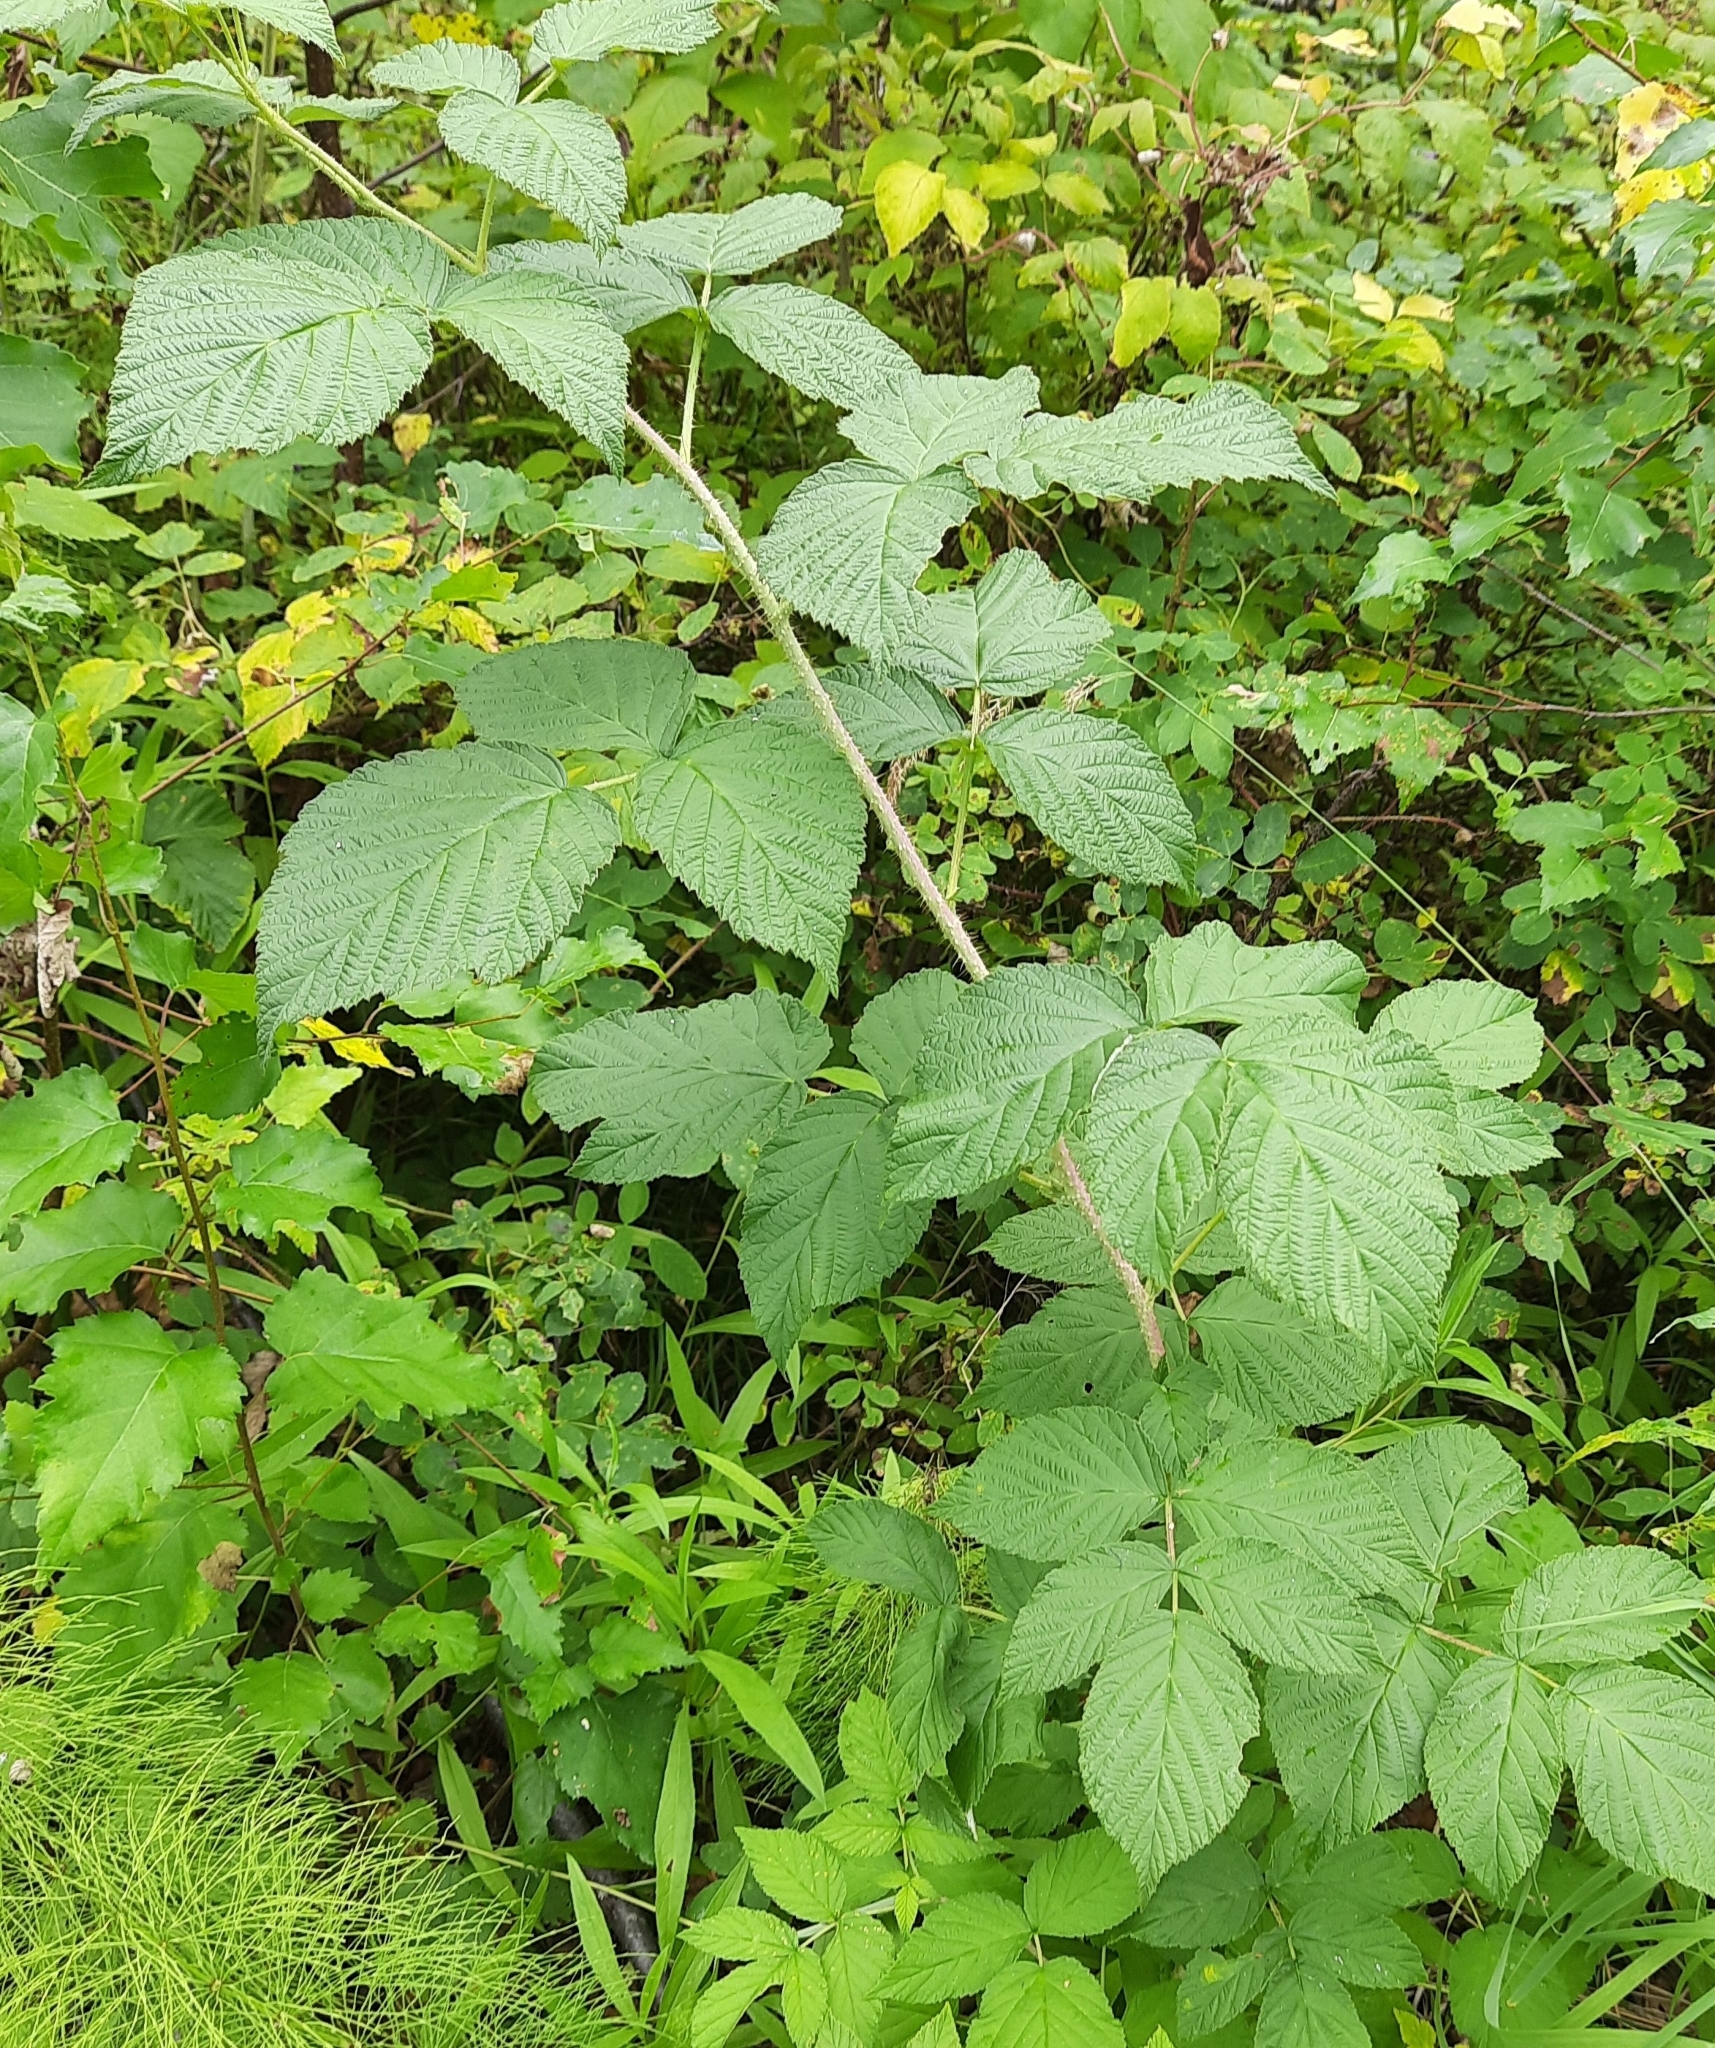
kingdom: Plantae
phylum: Tracheophyta
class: Magnoliopsida
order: Rosales
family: Rosaceae
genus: Rubus
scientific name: Rubus idaeus
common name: Raspberry
